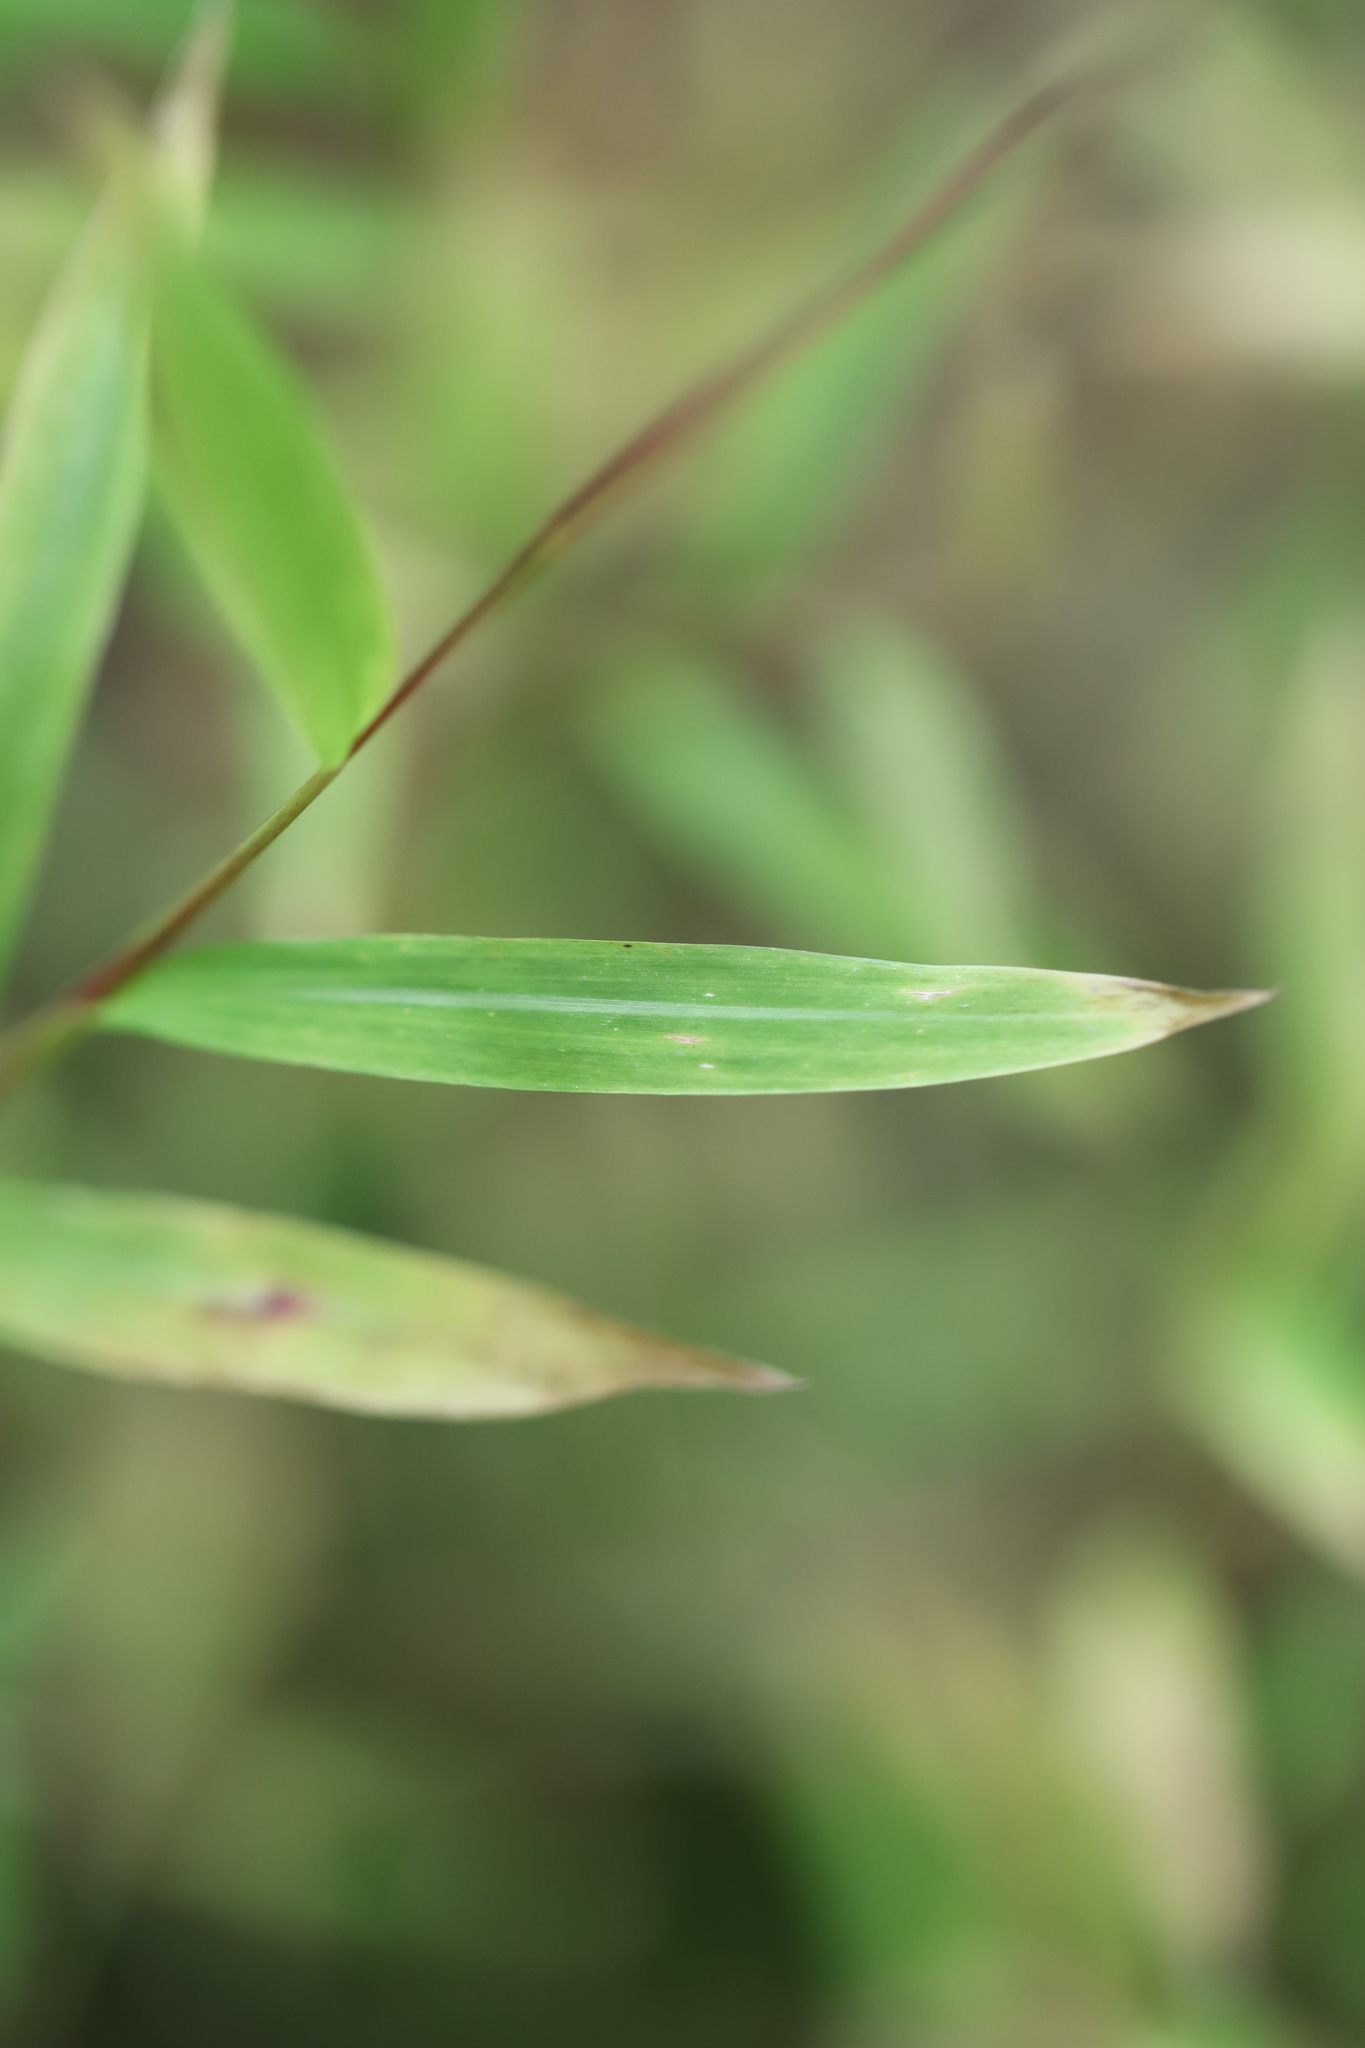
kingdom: Plantae
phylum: Tracheophyta
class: Liliopsida
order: Poales
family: Poaceae
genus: Microstegium
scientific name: Microstegium vimineum
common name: Japanese stiltgrass
